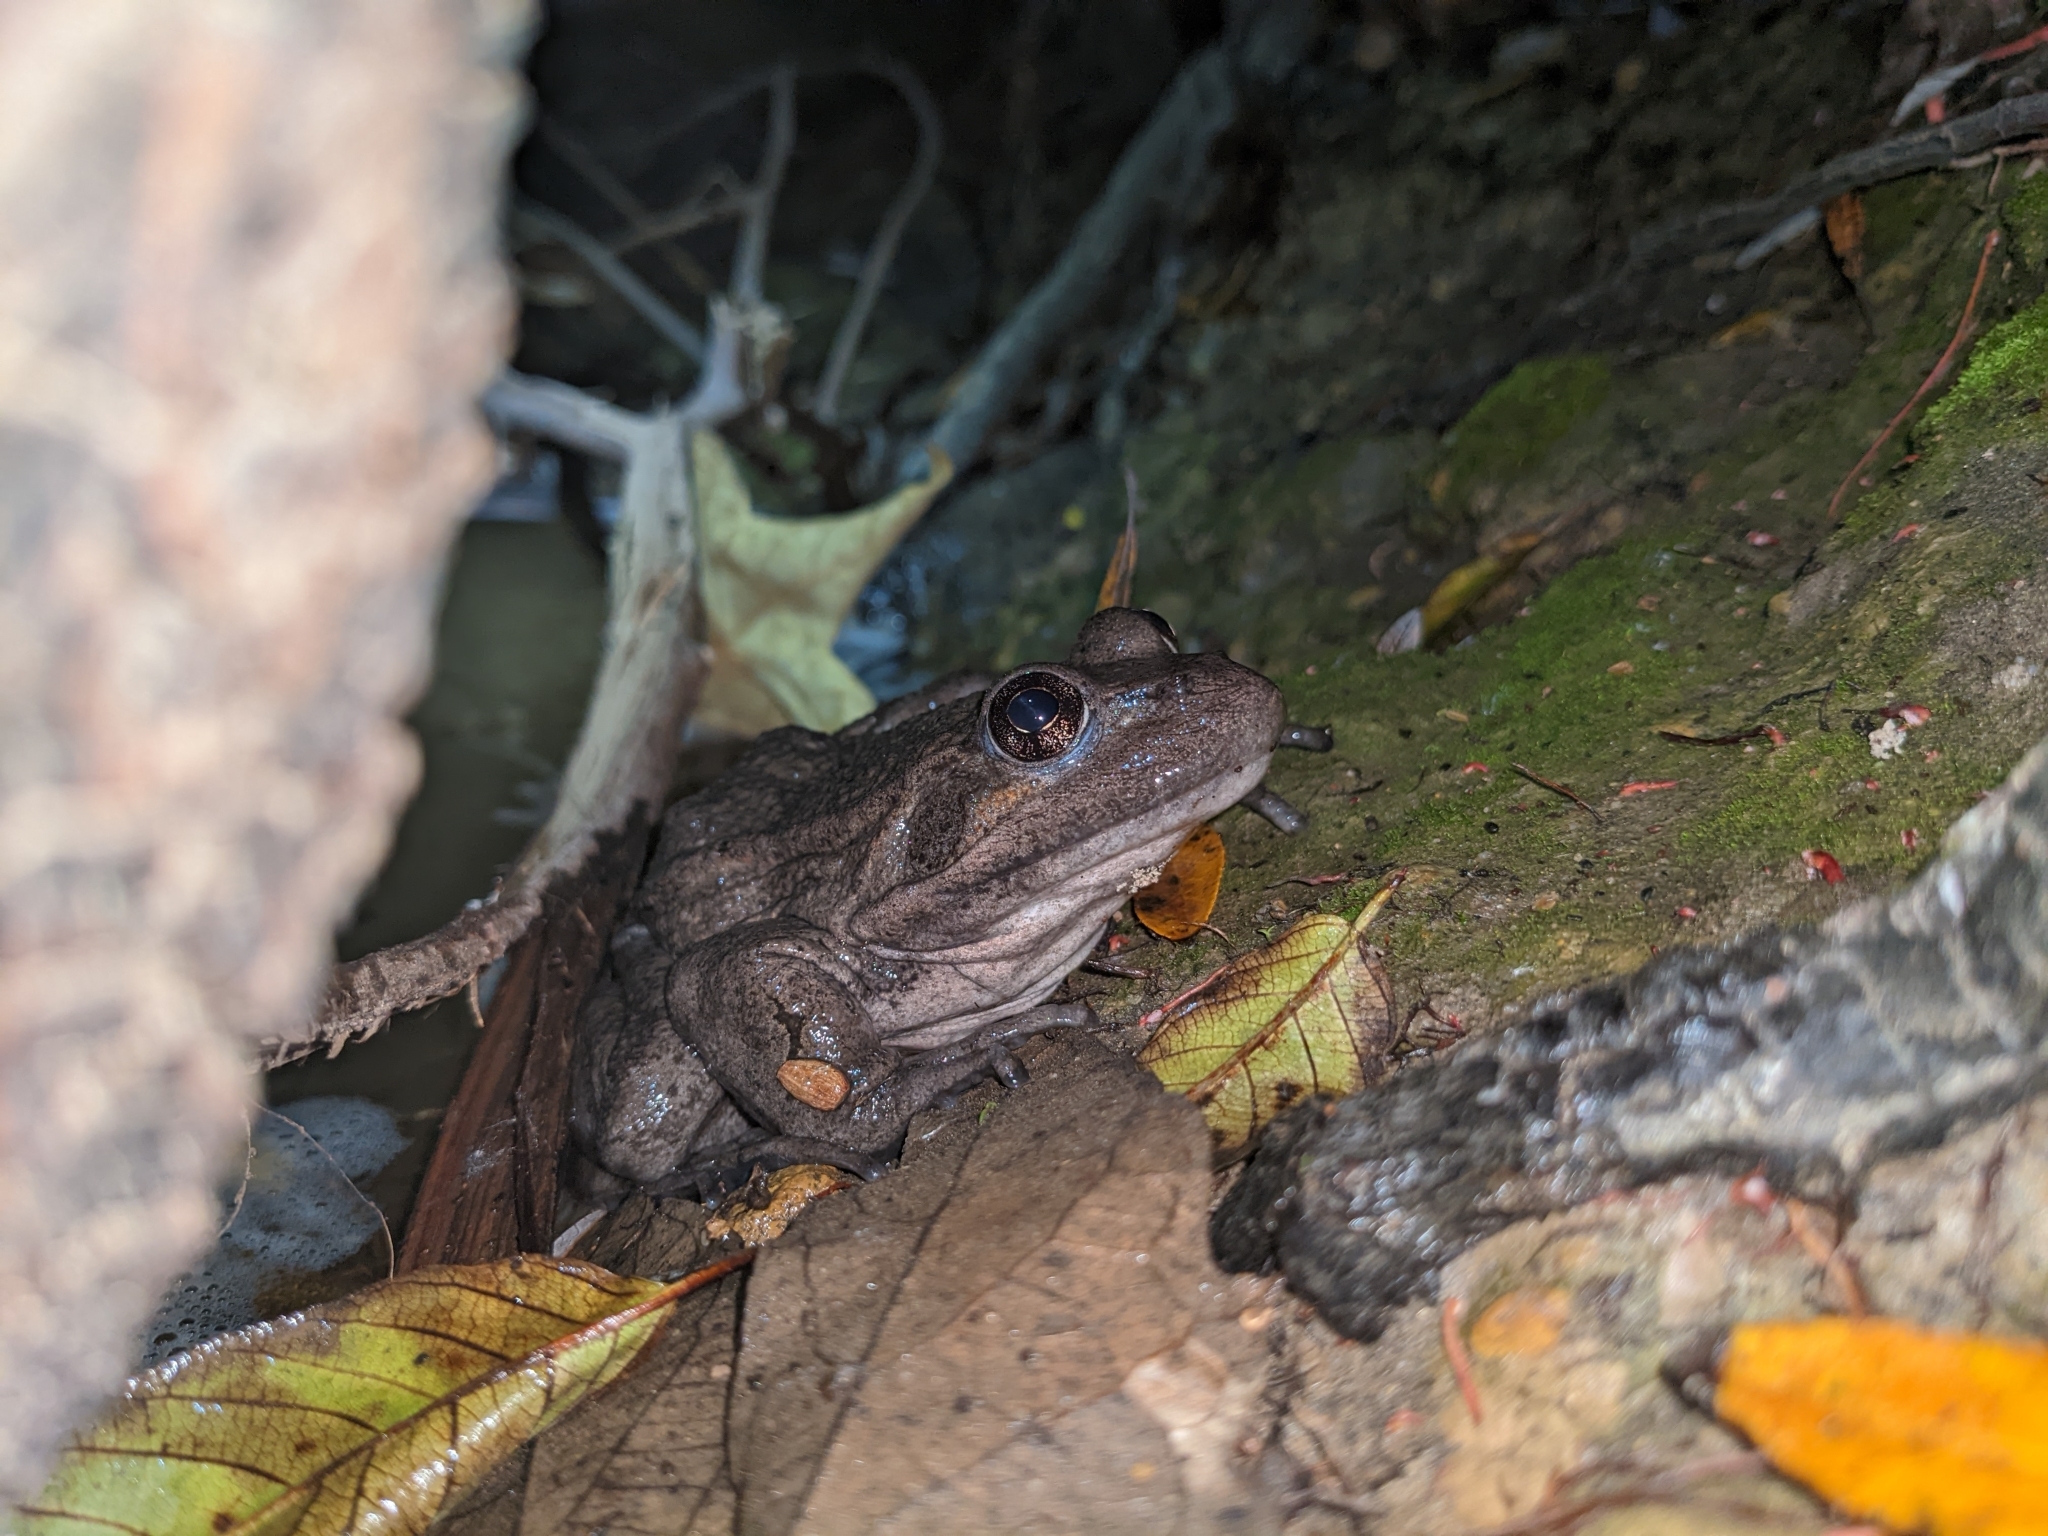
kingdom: Animalia
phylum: Chordata
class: Amphibia
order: Anura
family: Ranidae
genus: Rana
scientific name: Rana draytonii
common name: California red-legged frog
